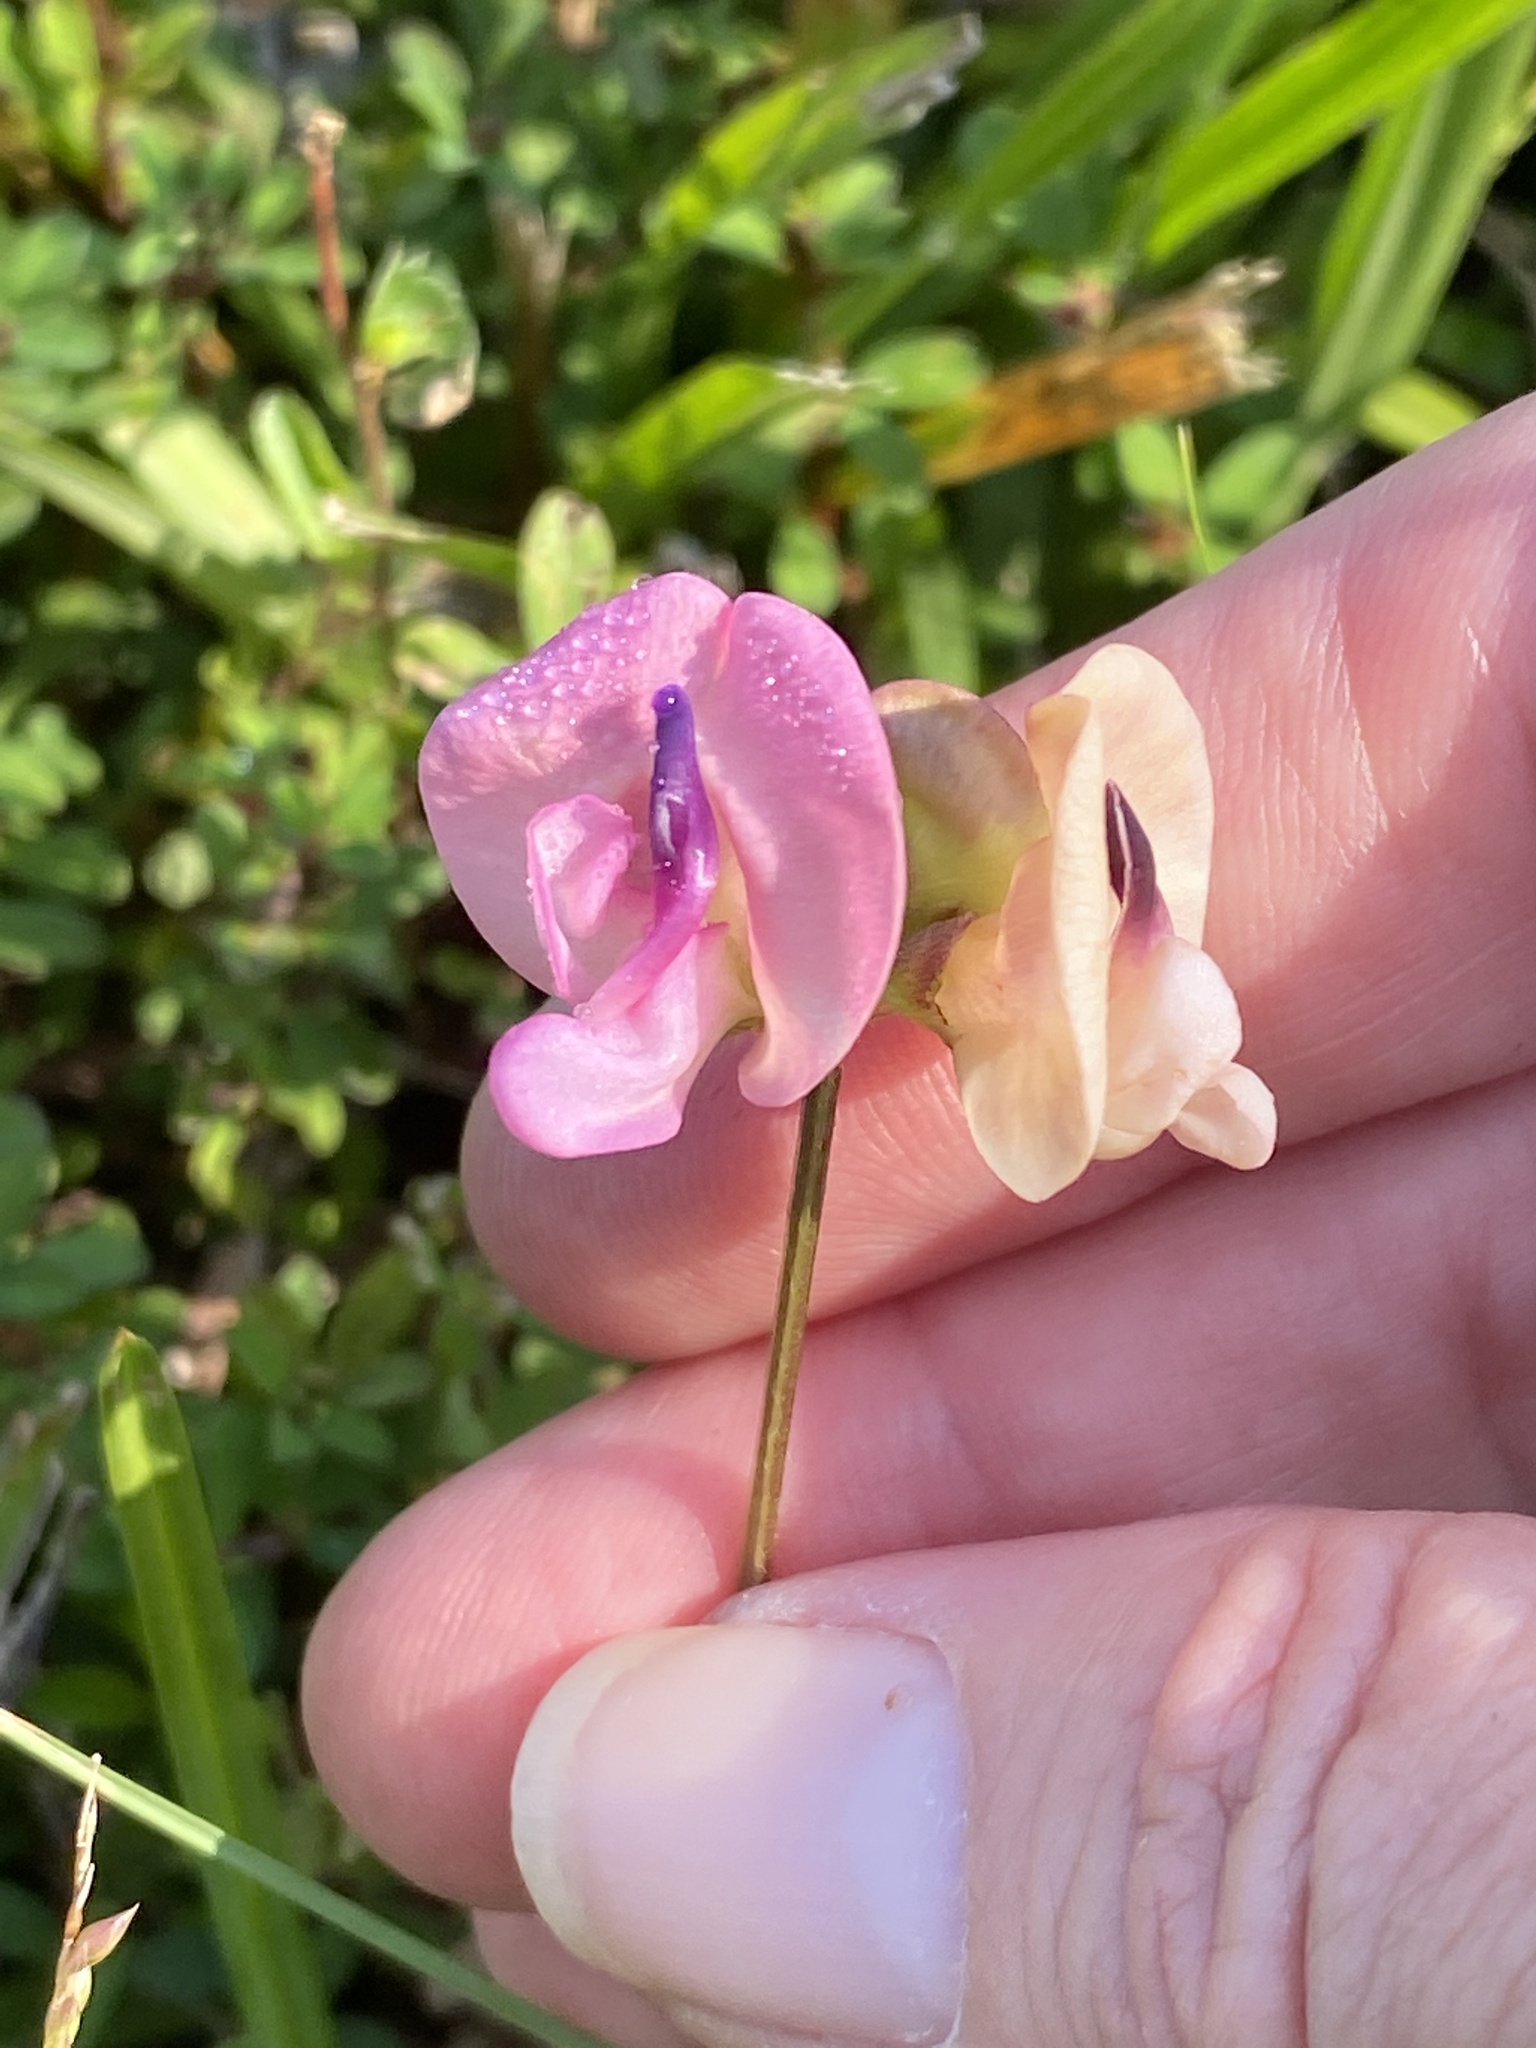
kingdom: Plantae
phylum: Tracheophyta
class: Magnoliopsida
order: Fabales
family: Fabaceae
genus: Strophostyles
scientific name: Strophostyles umbellata
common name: Perennial wild bean
